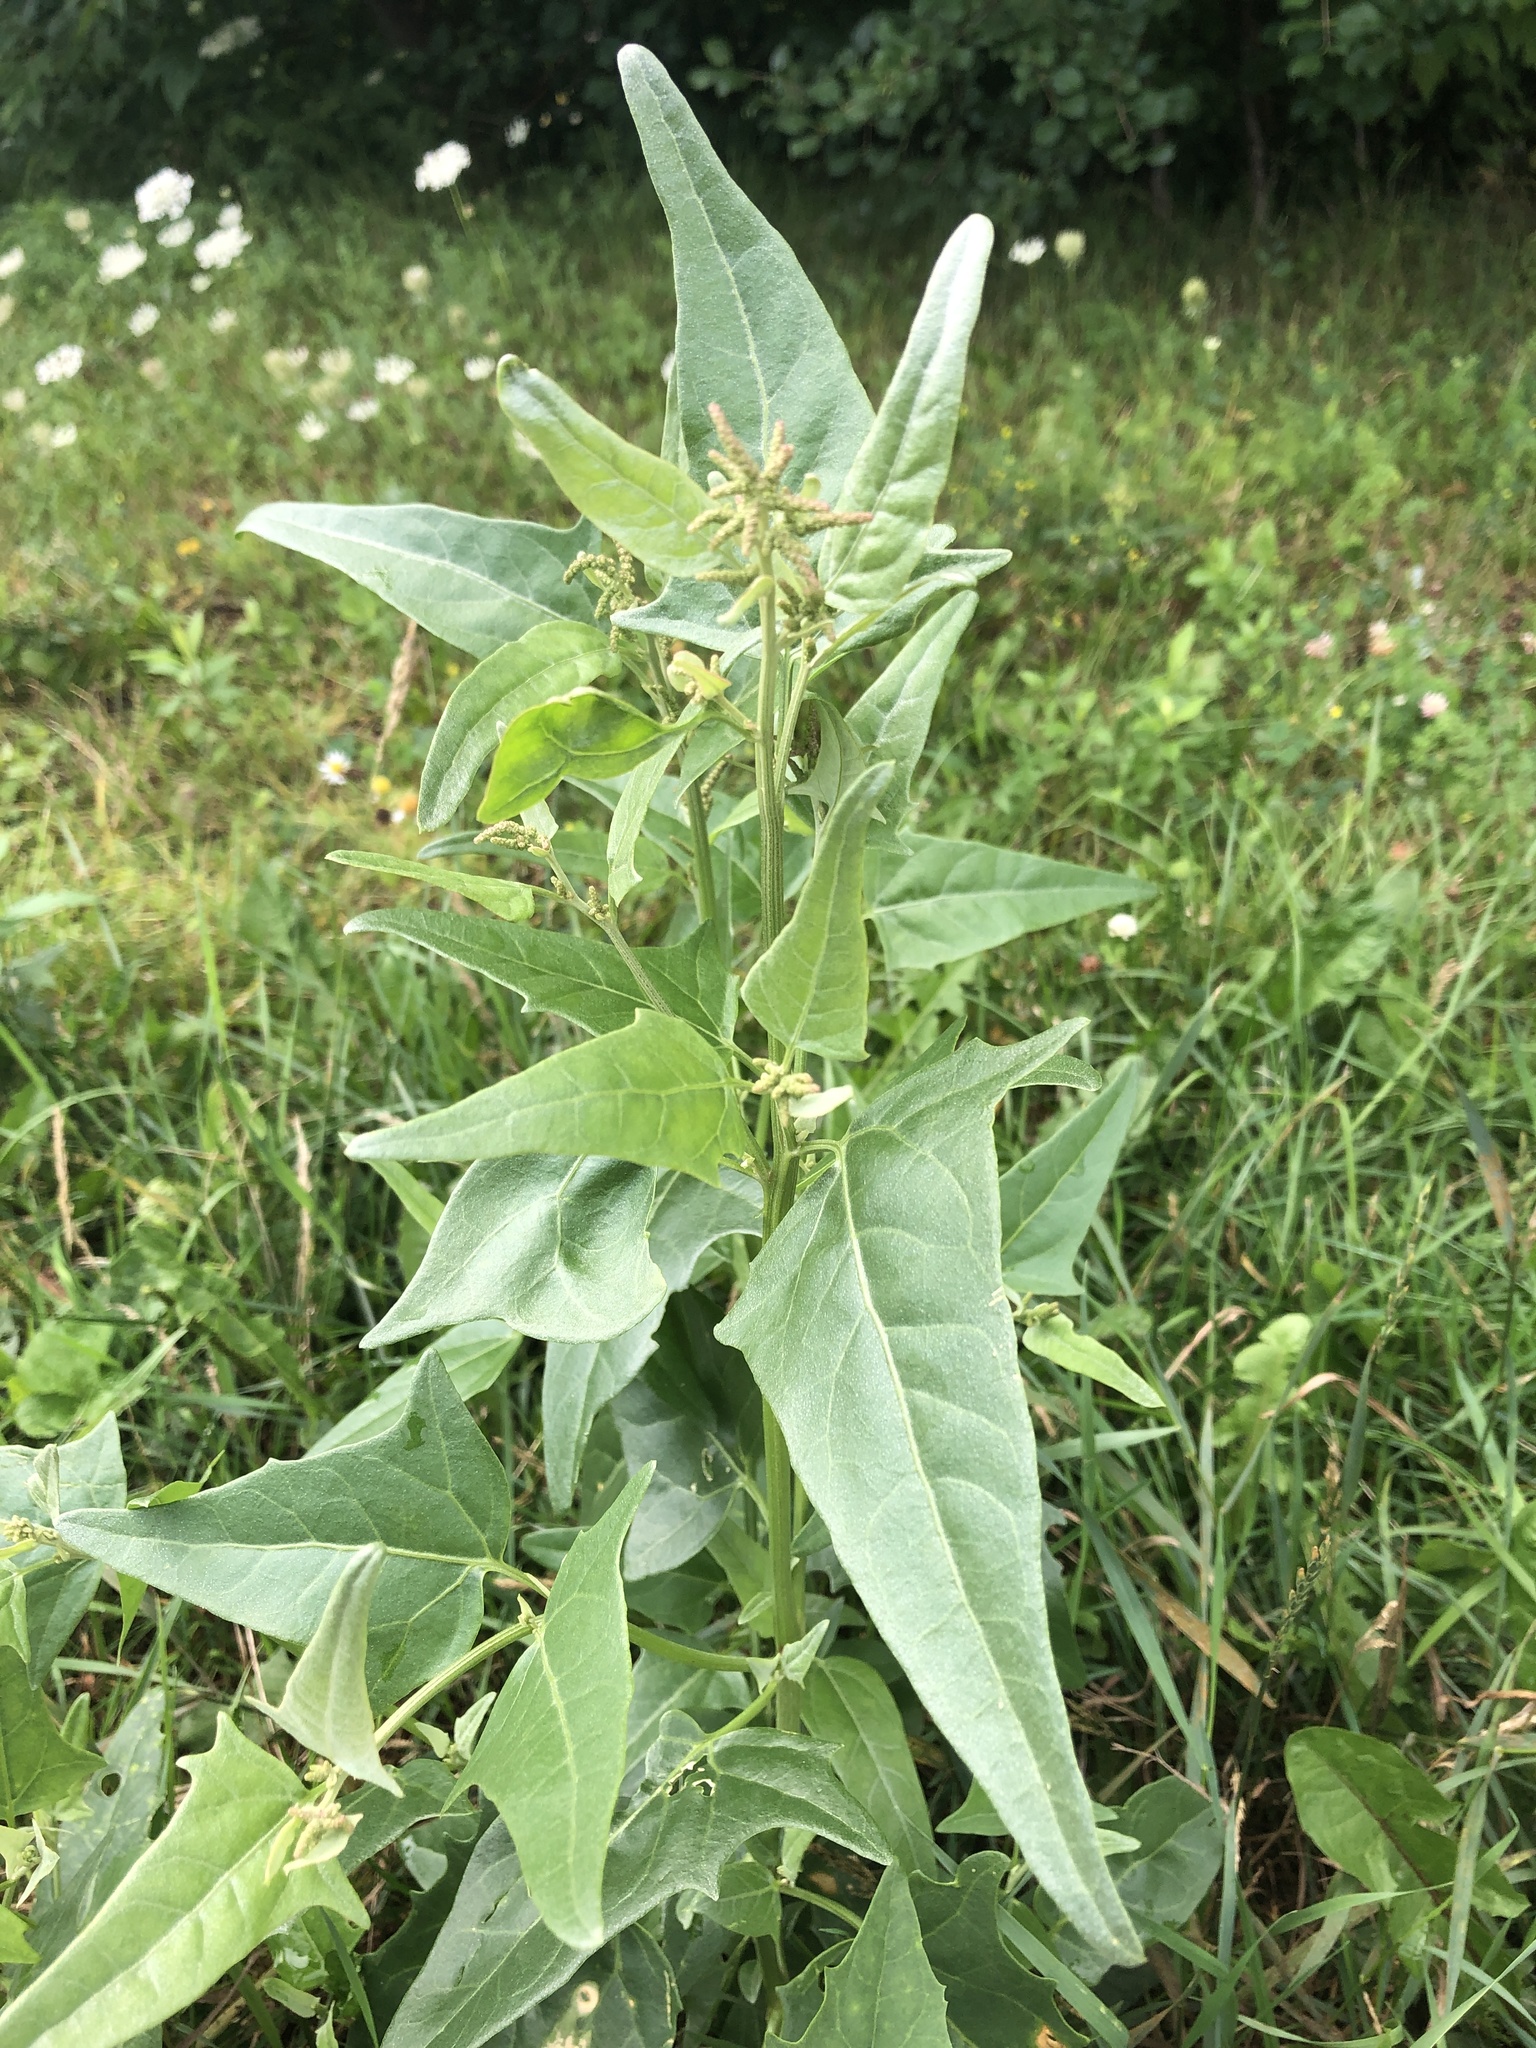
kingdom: Plantae
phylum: Tracheophyta
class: Magnoliopsida
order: Caryophyllales
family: Amaranthaceae
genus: Atriplex
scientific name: Atriplex micrantha
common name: Twoscale saltbush
